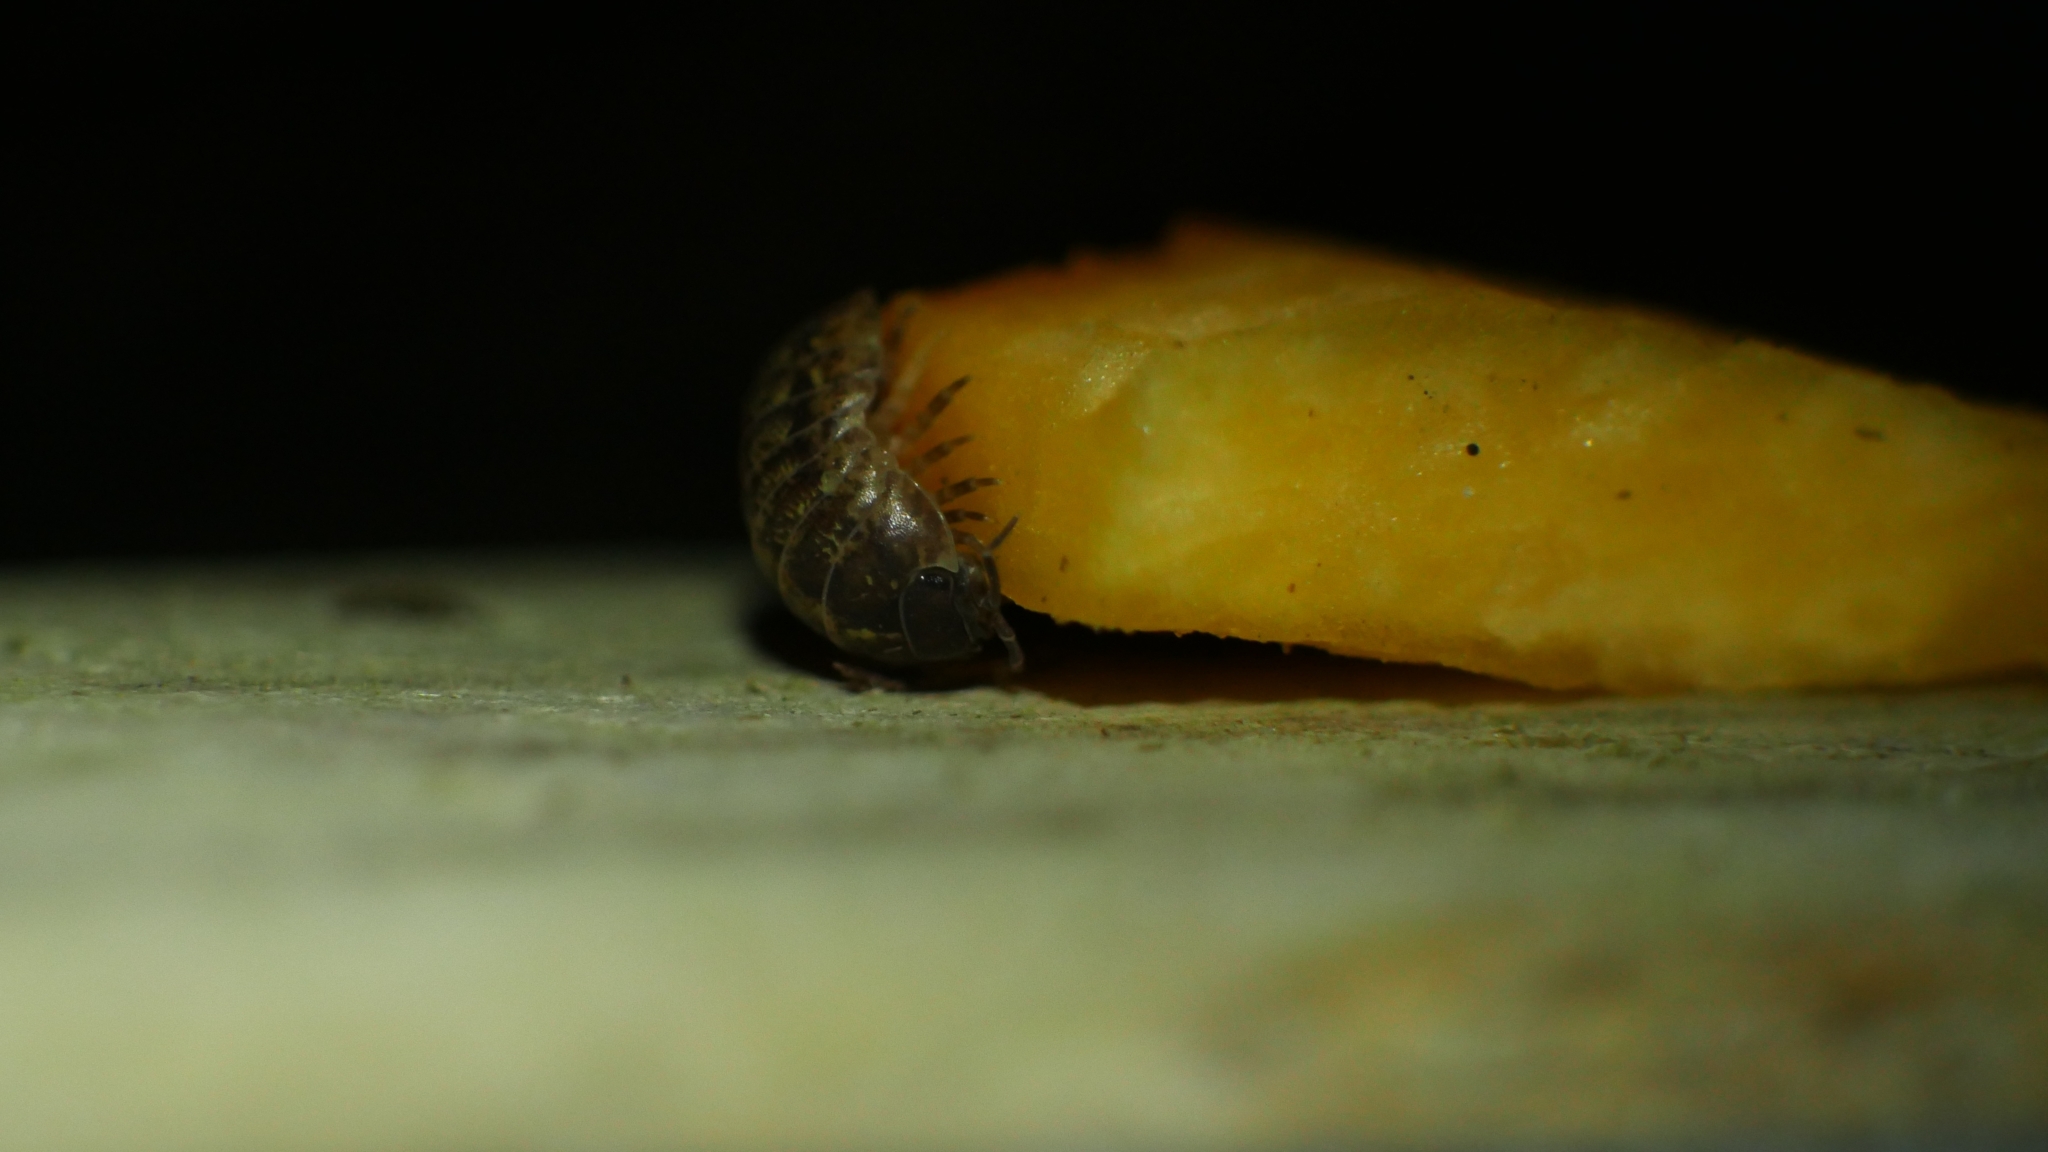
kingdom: Animalia
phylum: Arthropoda
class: Malacostraca
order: Isopoda
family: Armadillidiidae
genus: Armadillidium
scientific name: Armadillidium vulgare
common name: Common pill woodlouse
